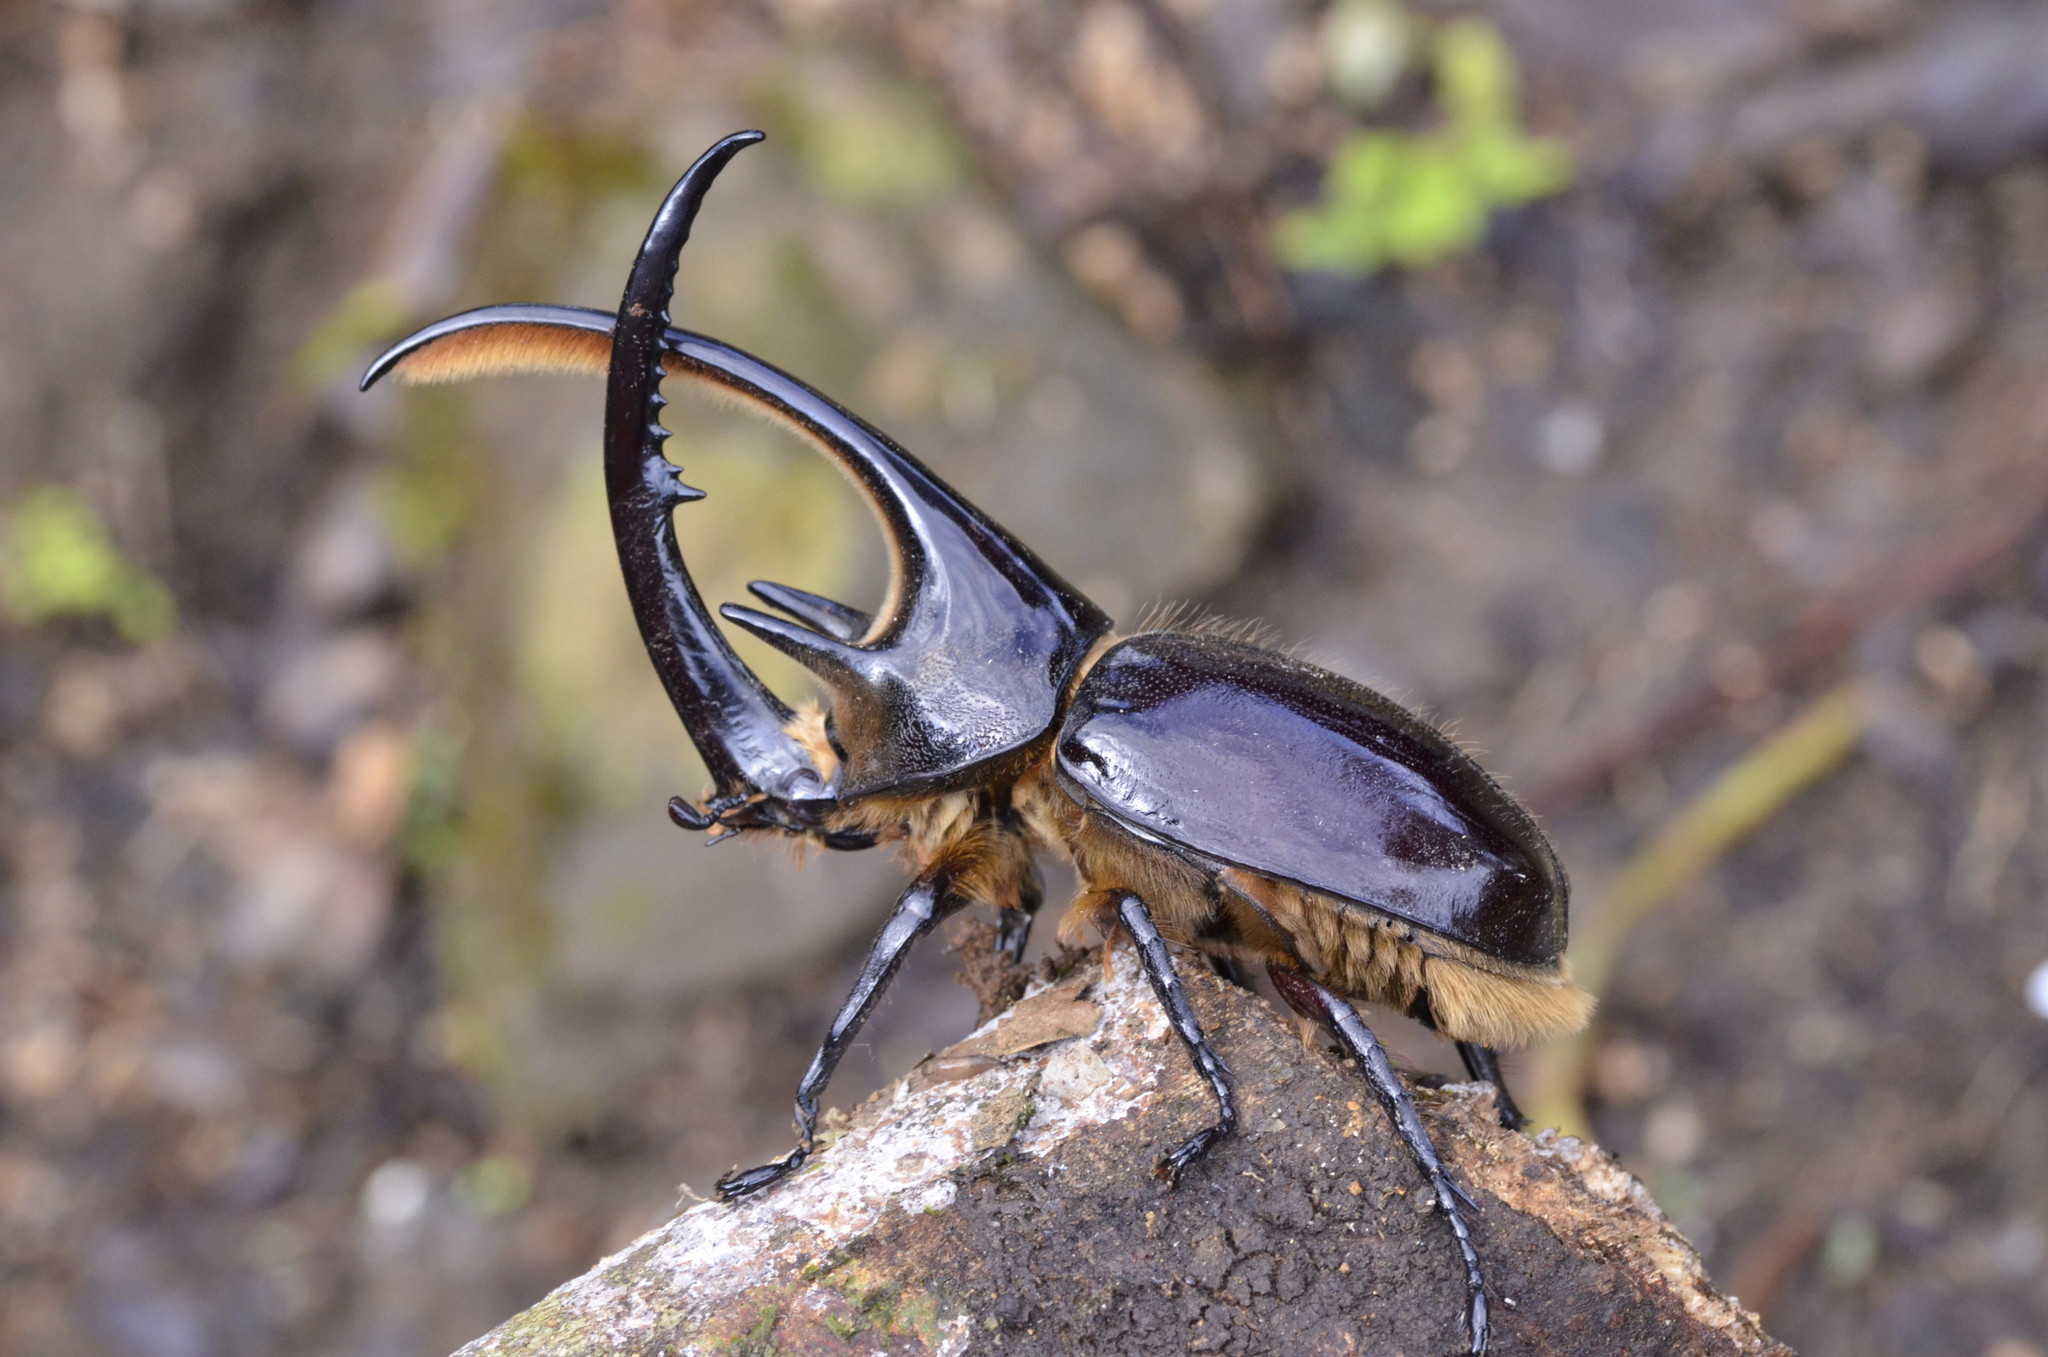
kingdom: Animalia
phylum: Arthropoda
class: Insecta
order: Coleoptera
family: Scarabaeidae
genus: Dynastes
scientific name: Dynastes neptunus
